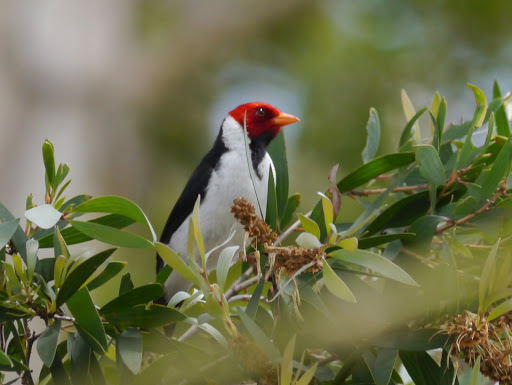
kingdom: Animalia
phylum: Chordata
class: Aves
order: Passeriformes
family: Thraupidae
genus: Paroaria
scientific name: Paroaria capitata
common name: Yellow-billed cardinal
